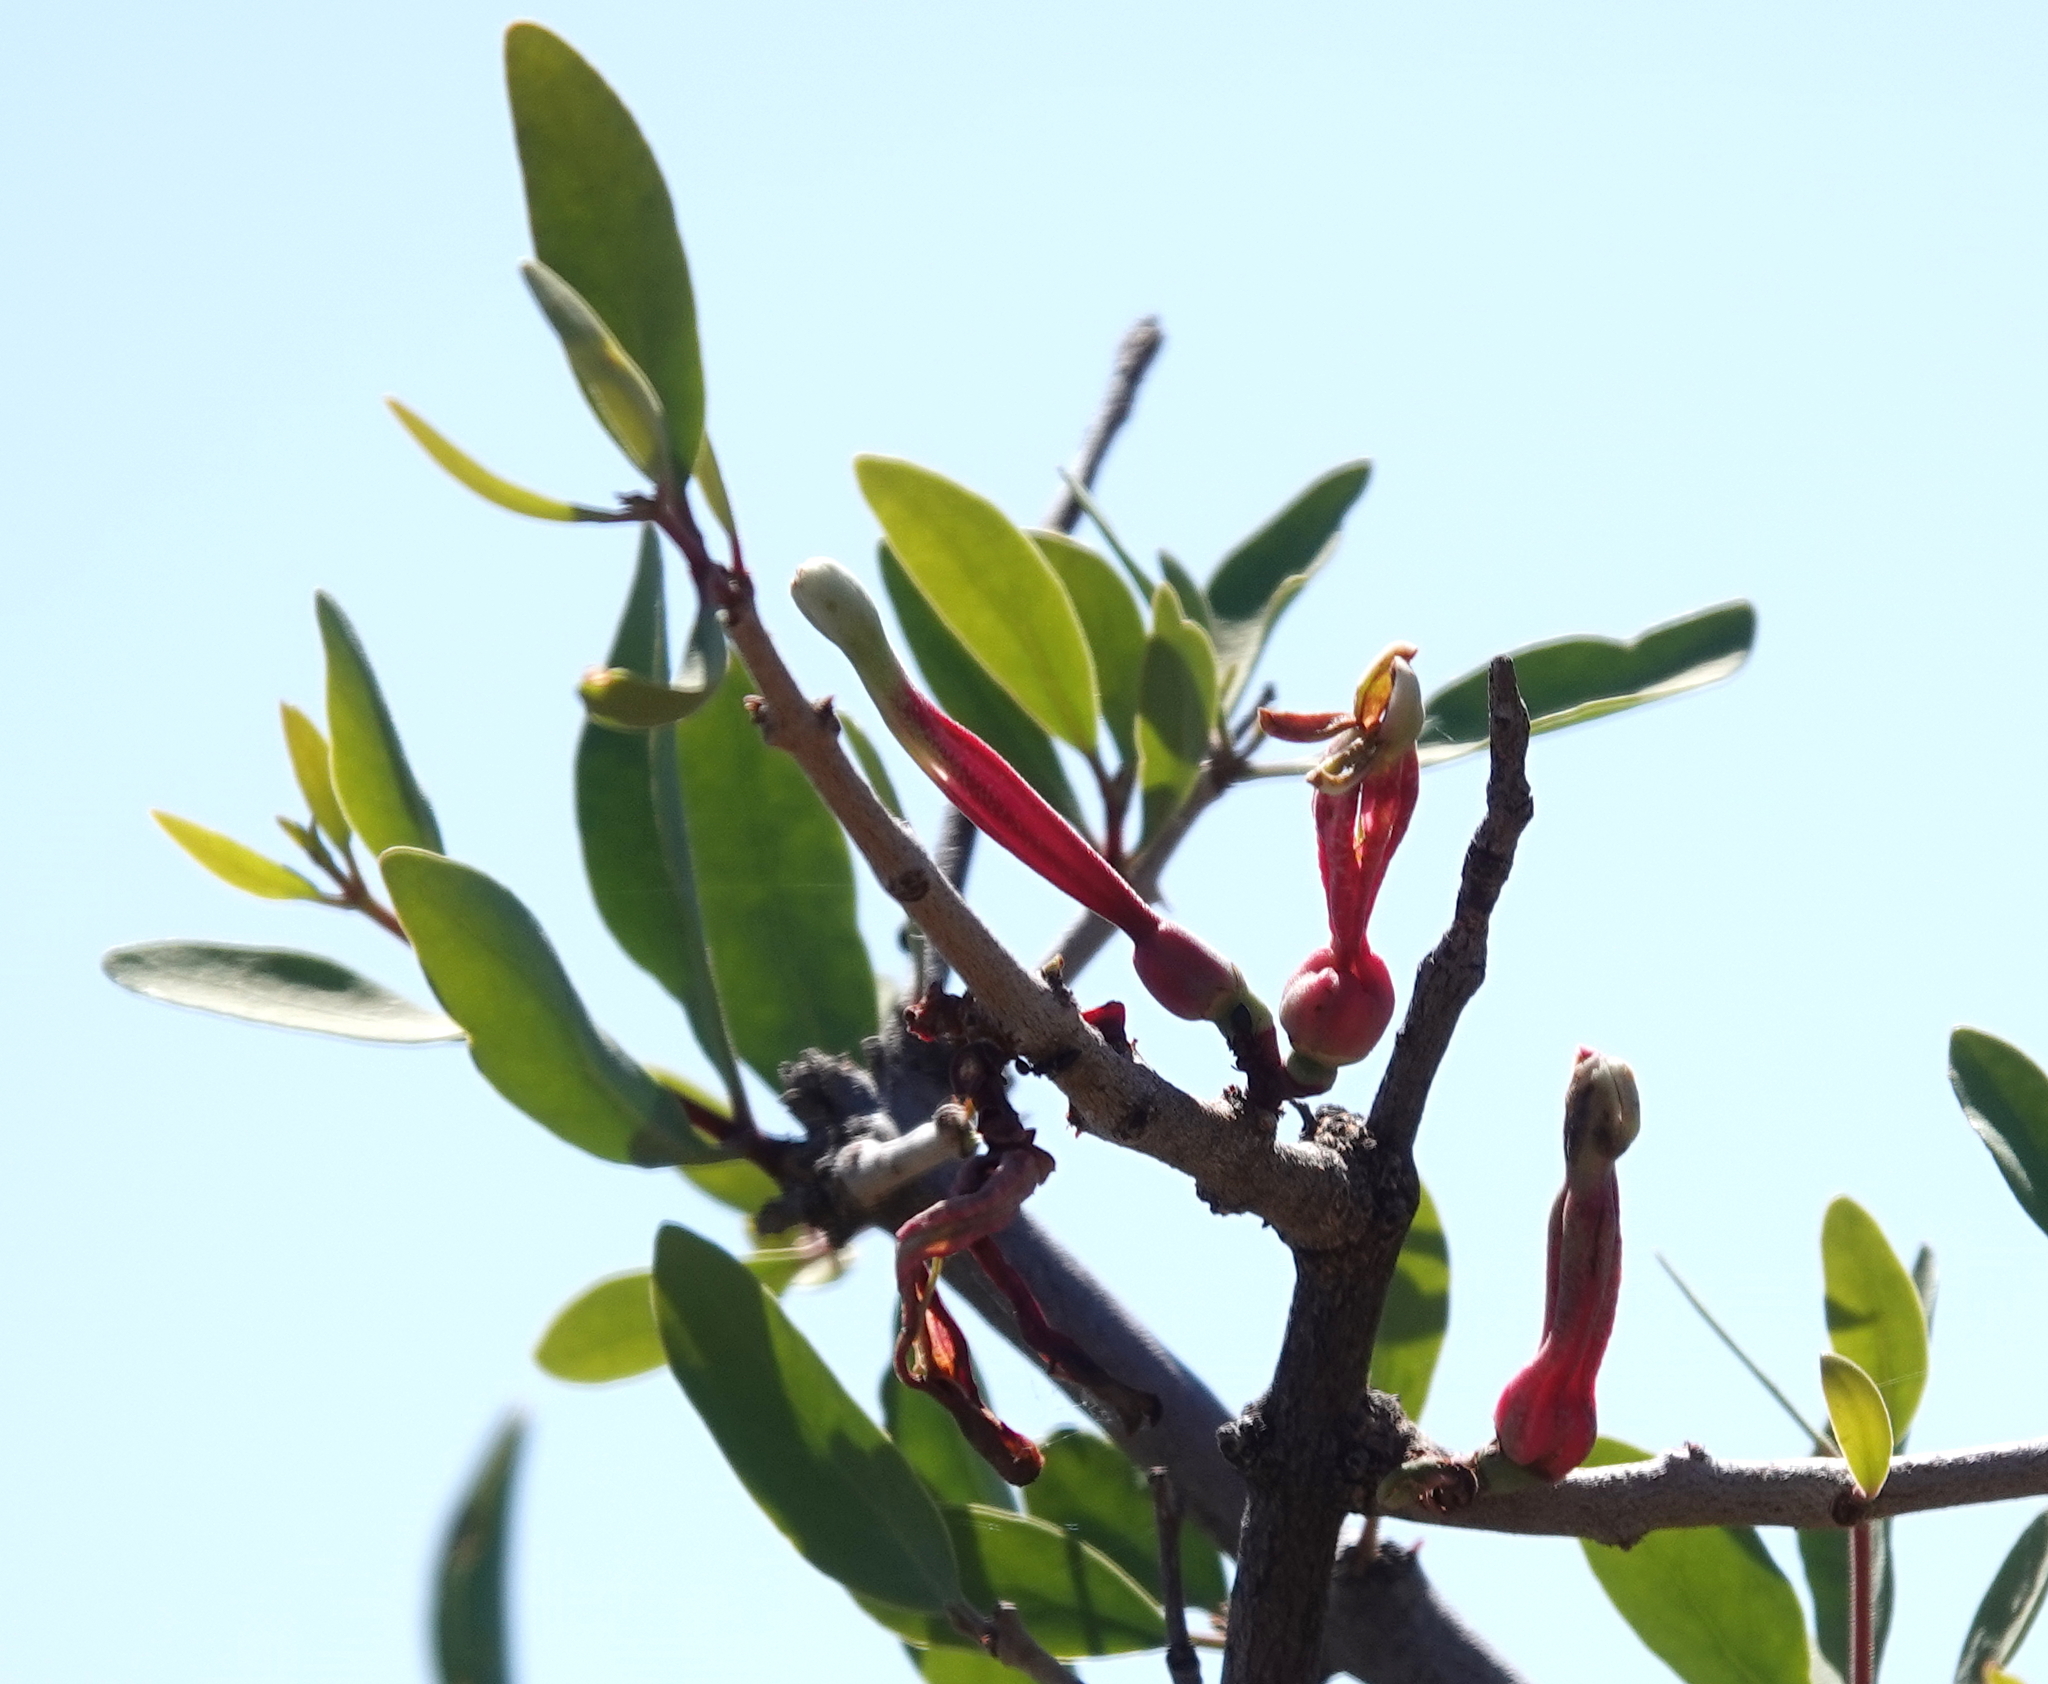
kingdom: Plantae
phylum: Tracheophyta
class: Magnoliopsida
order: Santalales
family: Loranthaceae
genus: Tapinanthus
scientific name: Tapinanthus oleifolius
